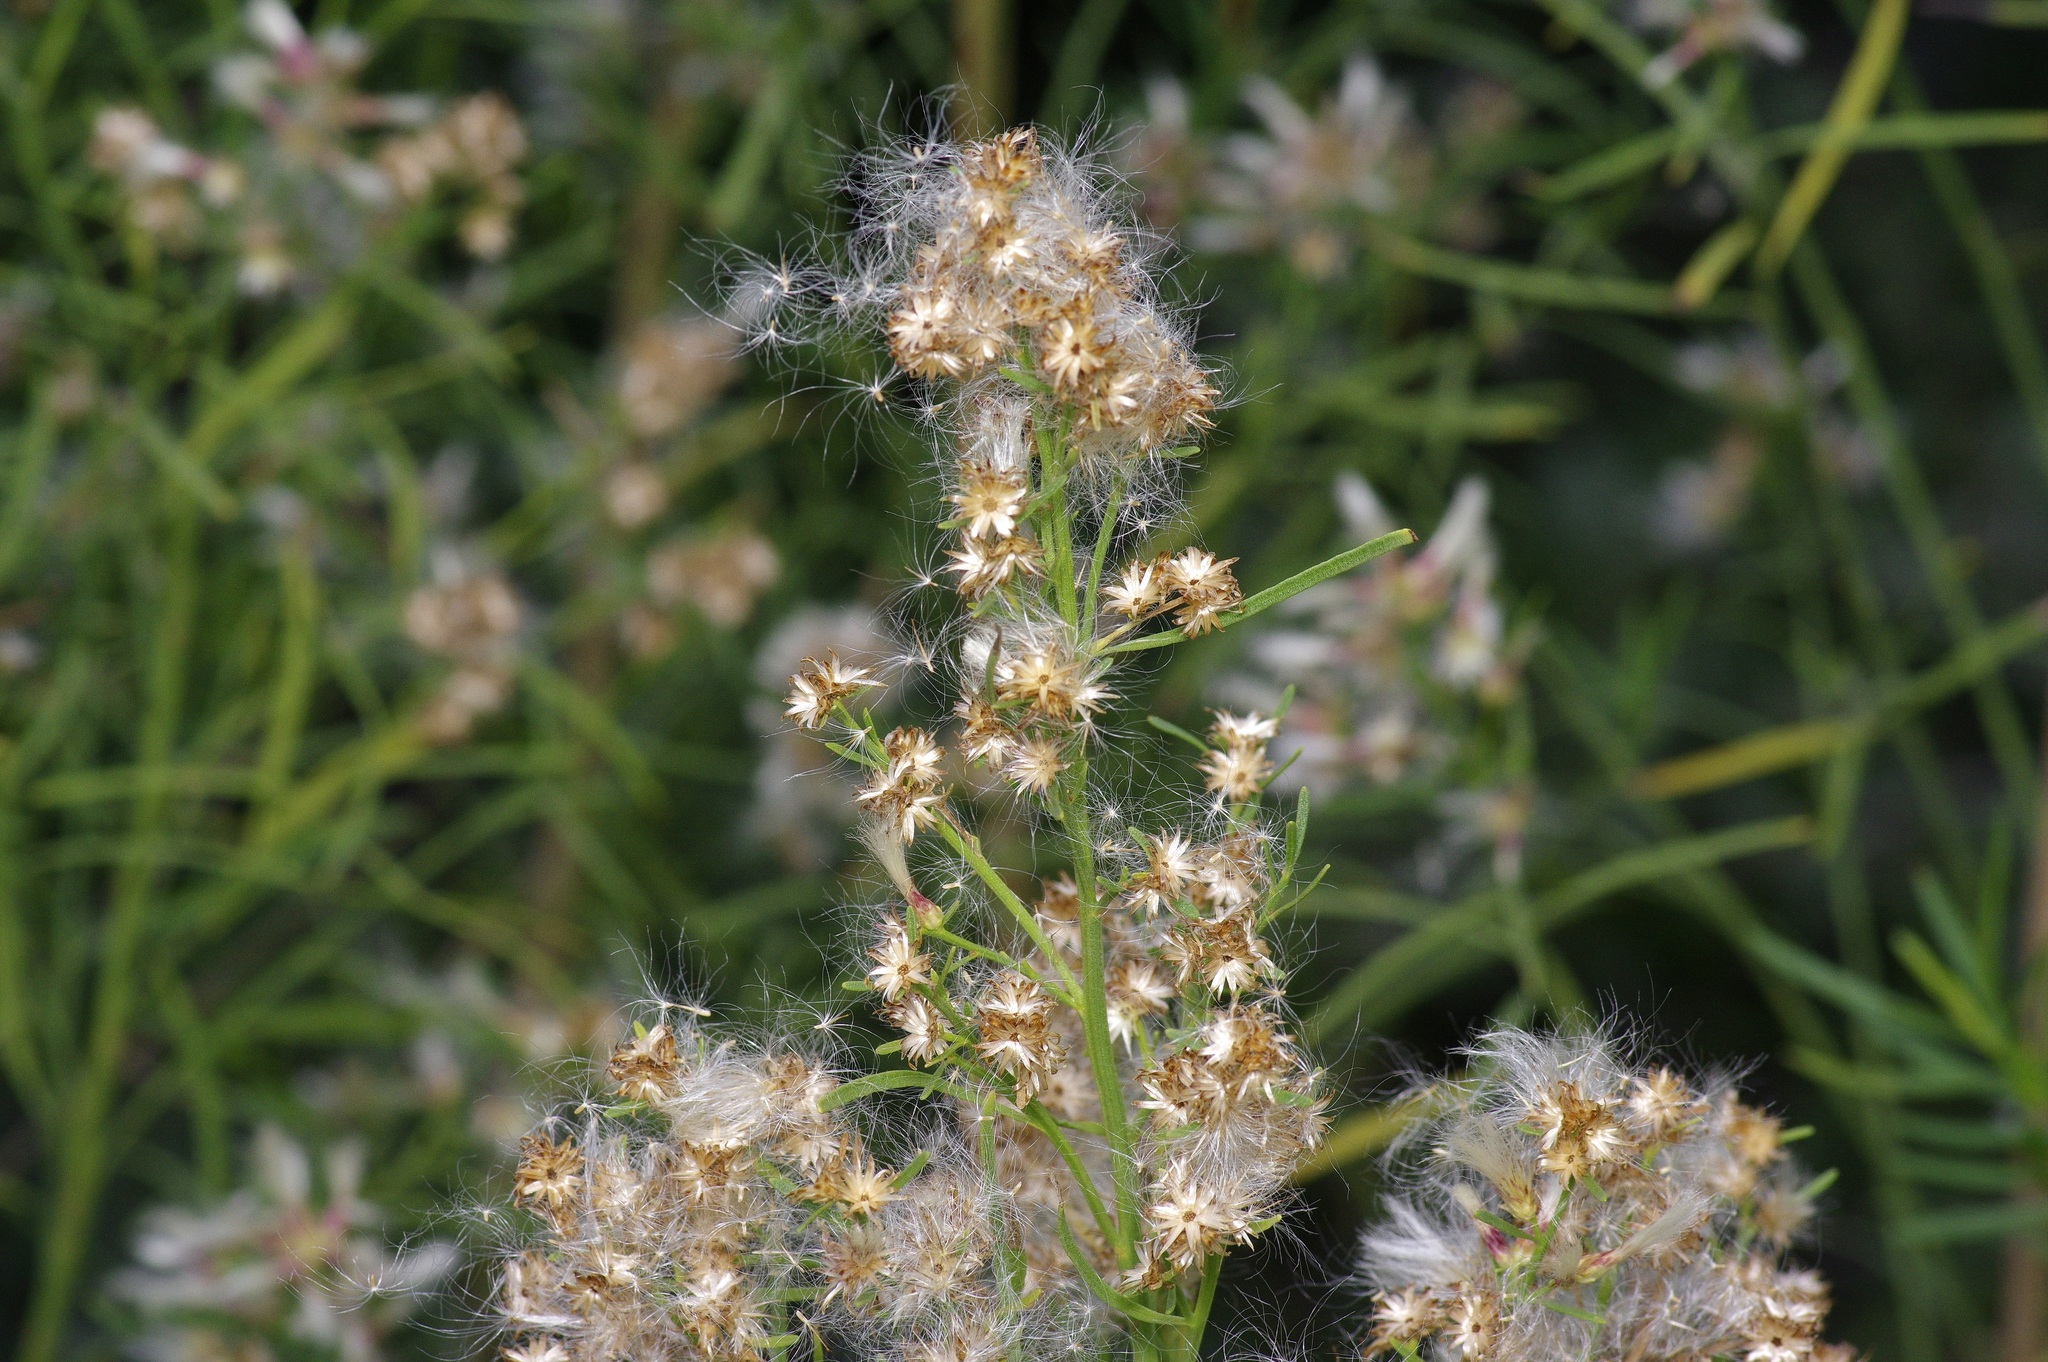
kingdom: Plantae
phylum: Tracheophyta
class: Magnoliopsida
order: Asterales
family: Asteraceae
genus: Baccharis
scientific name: Baccharis neglecta
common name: Roosevelt-weed
